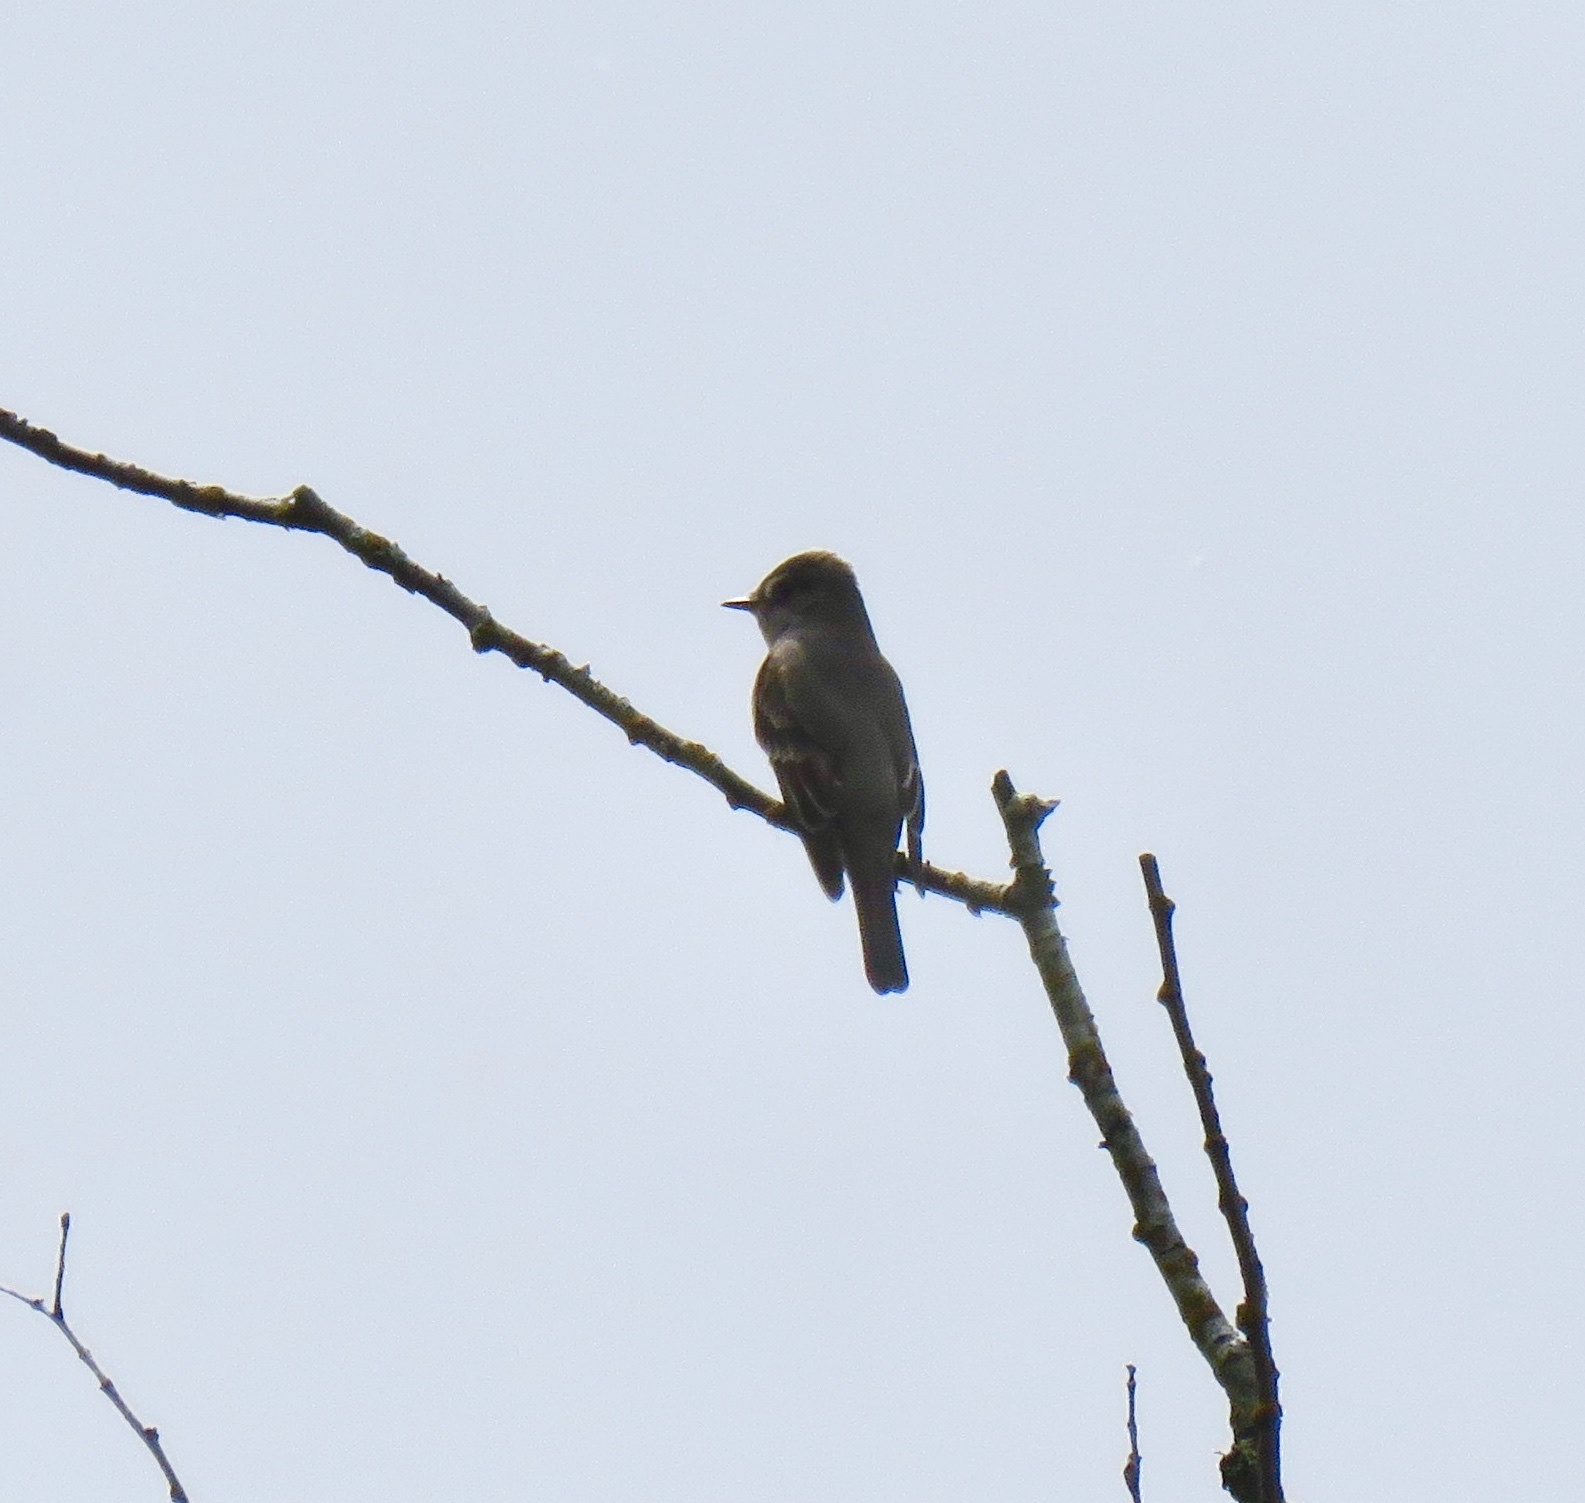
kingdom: Animalia
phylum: Chordata
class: Aves
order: Passeriformes
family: Tyrannidae
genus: Contopus
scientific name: Contopus sordidulus
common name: Western wood-pewee
